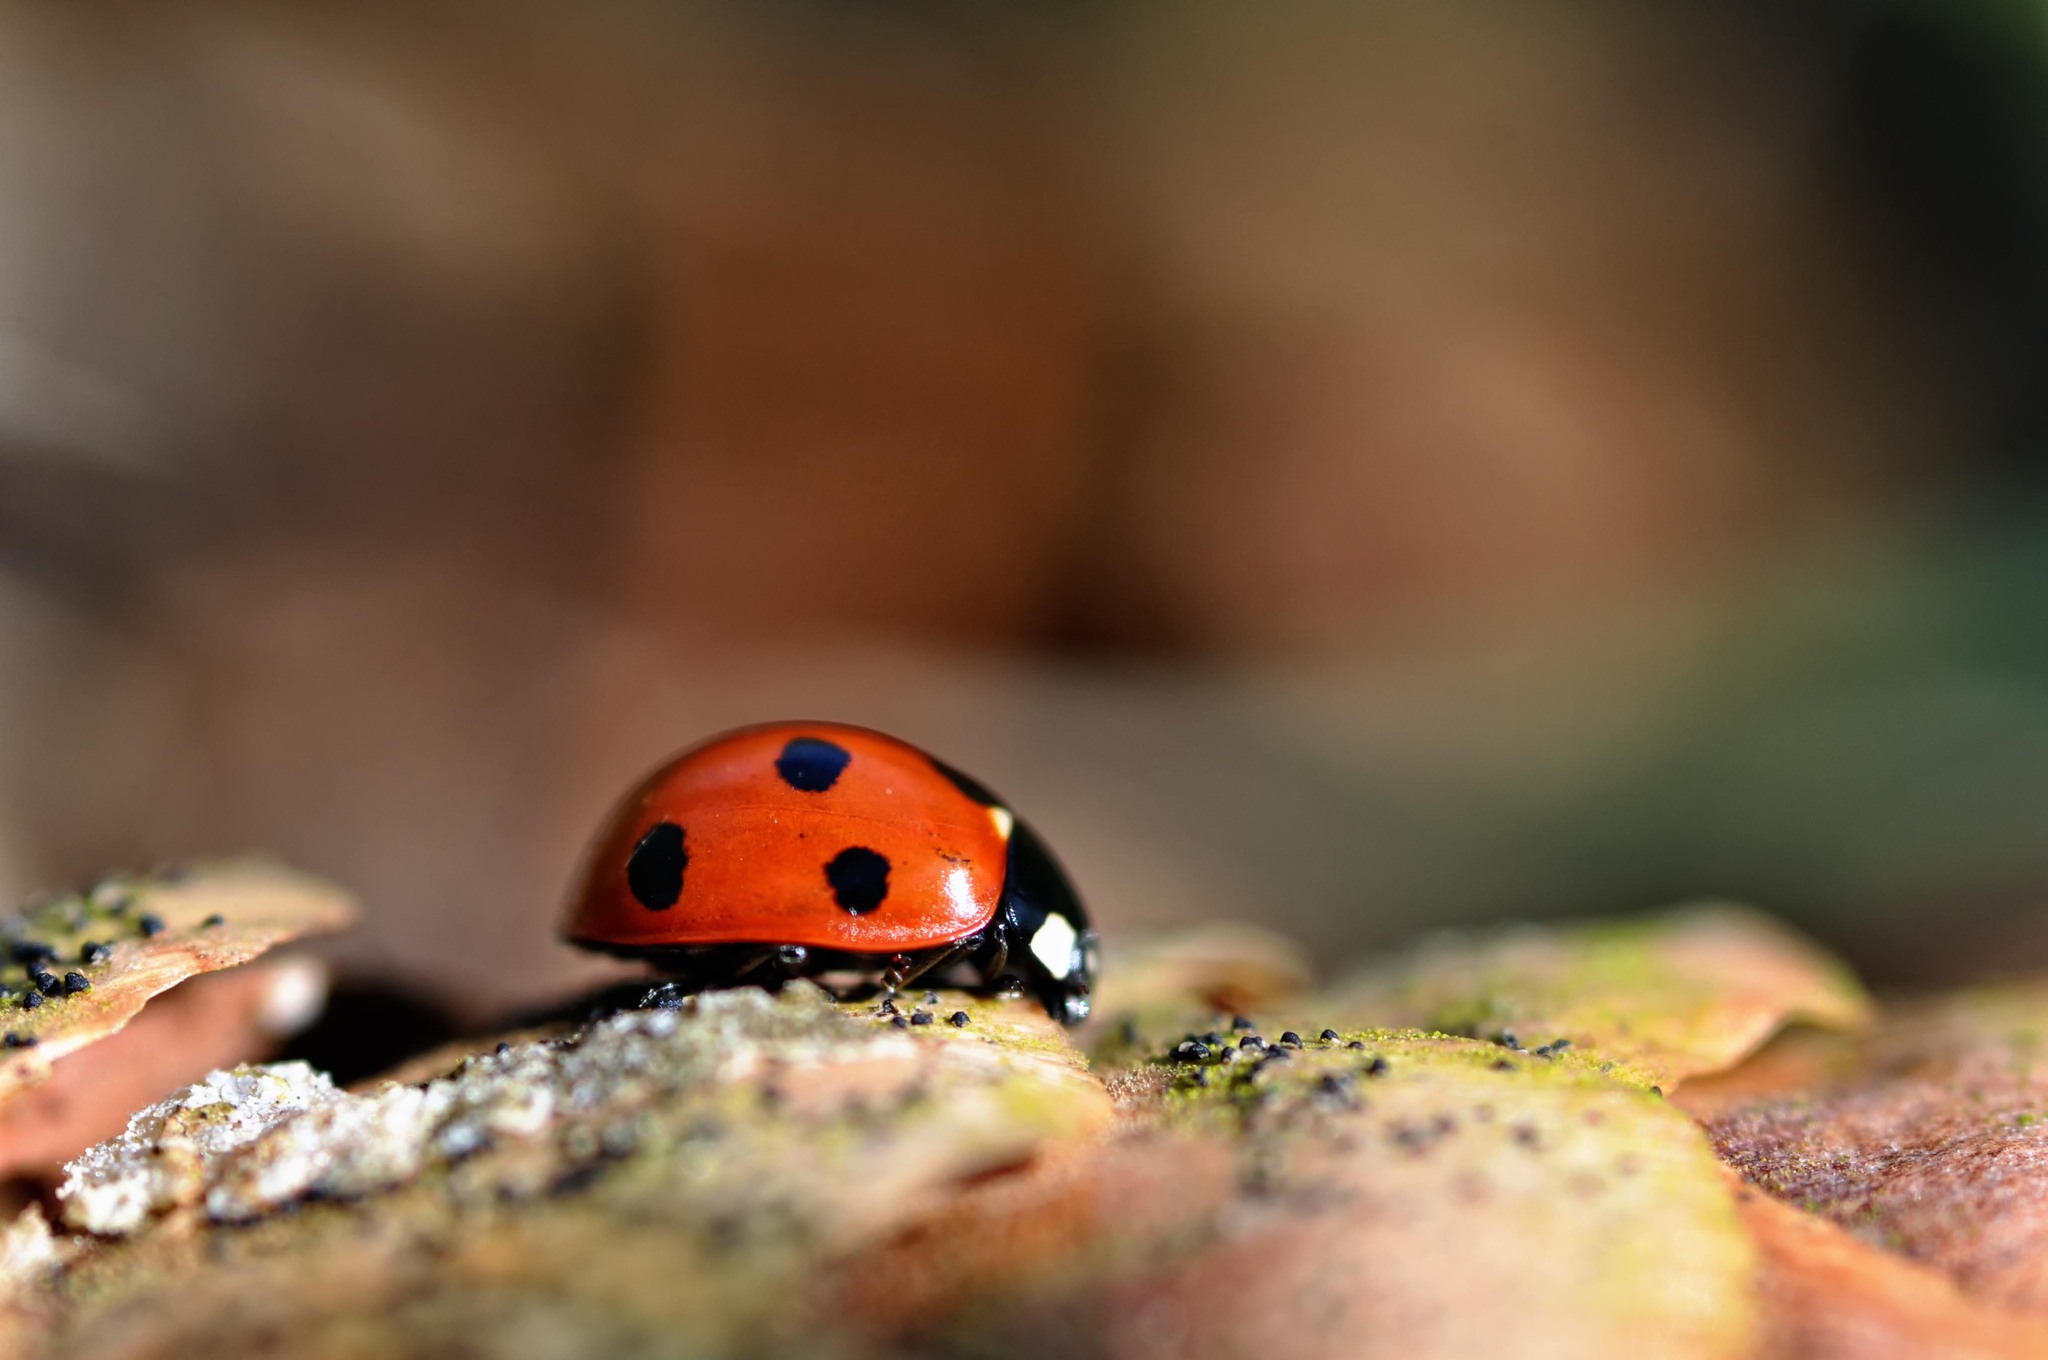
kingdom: Animalia
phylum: Arthropoda
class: Insecta
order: Coleoptera
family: Coccinellidae
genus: Coccinella
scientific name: Coccinella septempunctata
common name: Sevenspotted lady beetle
